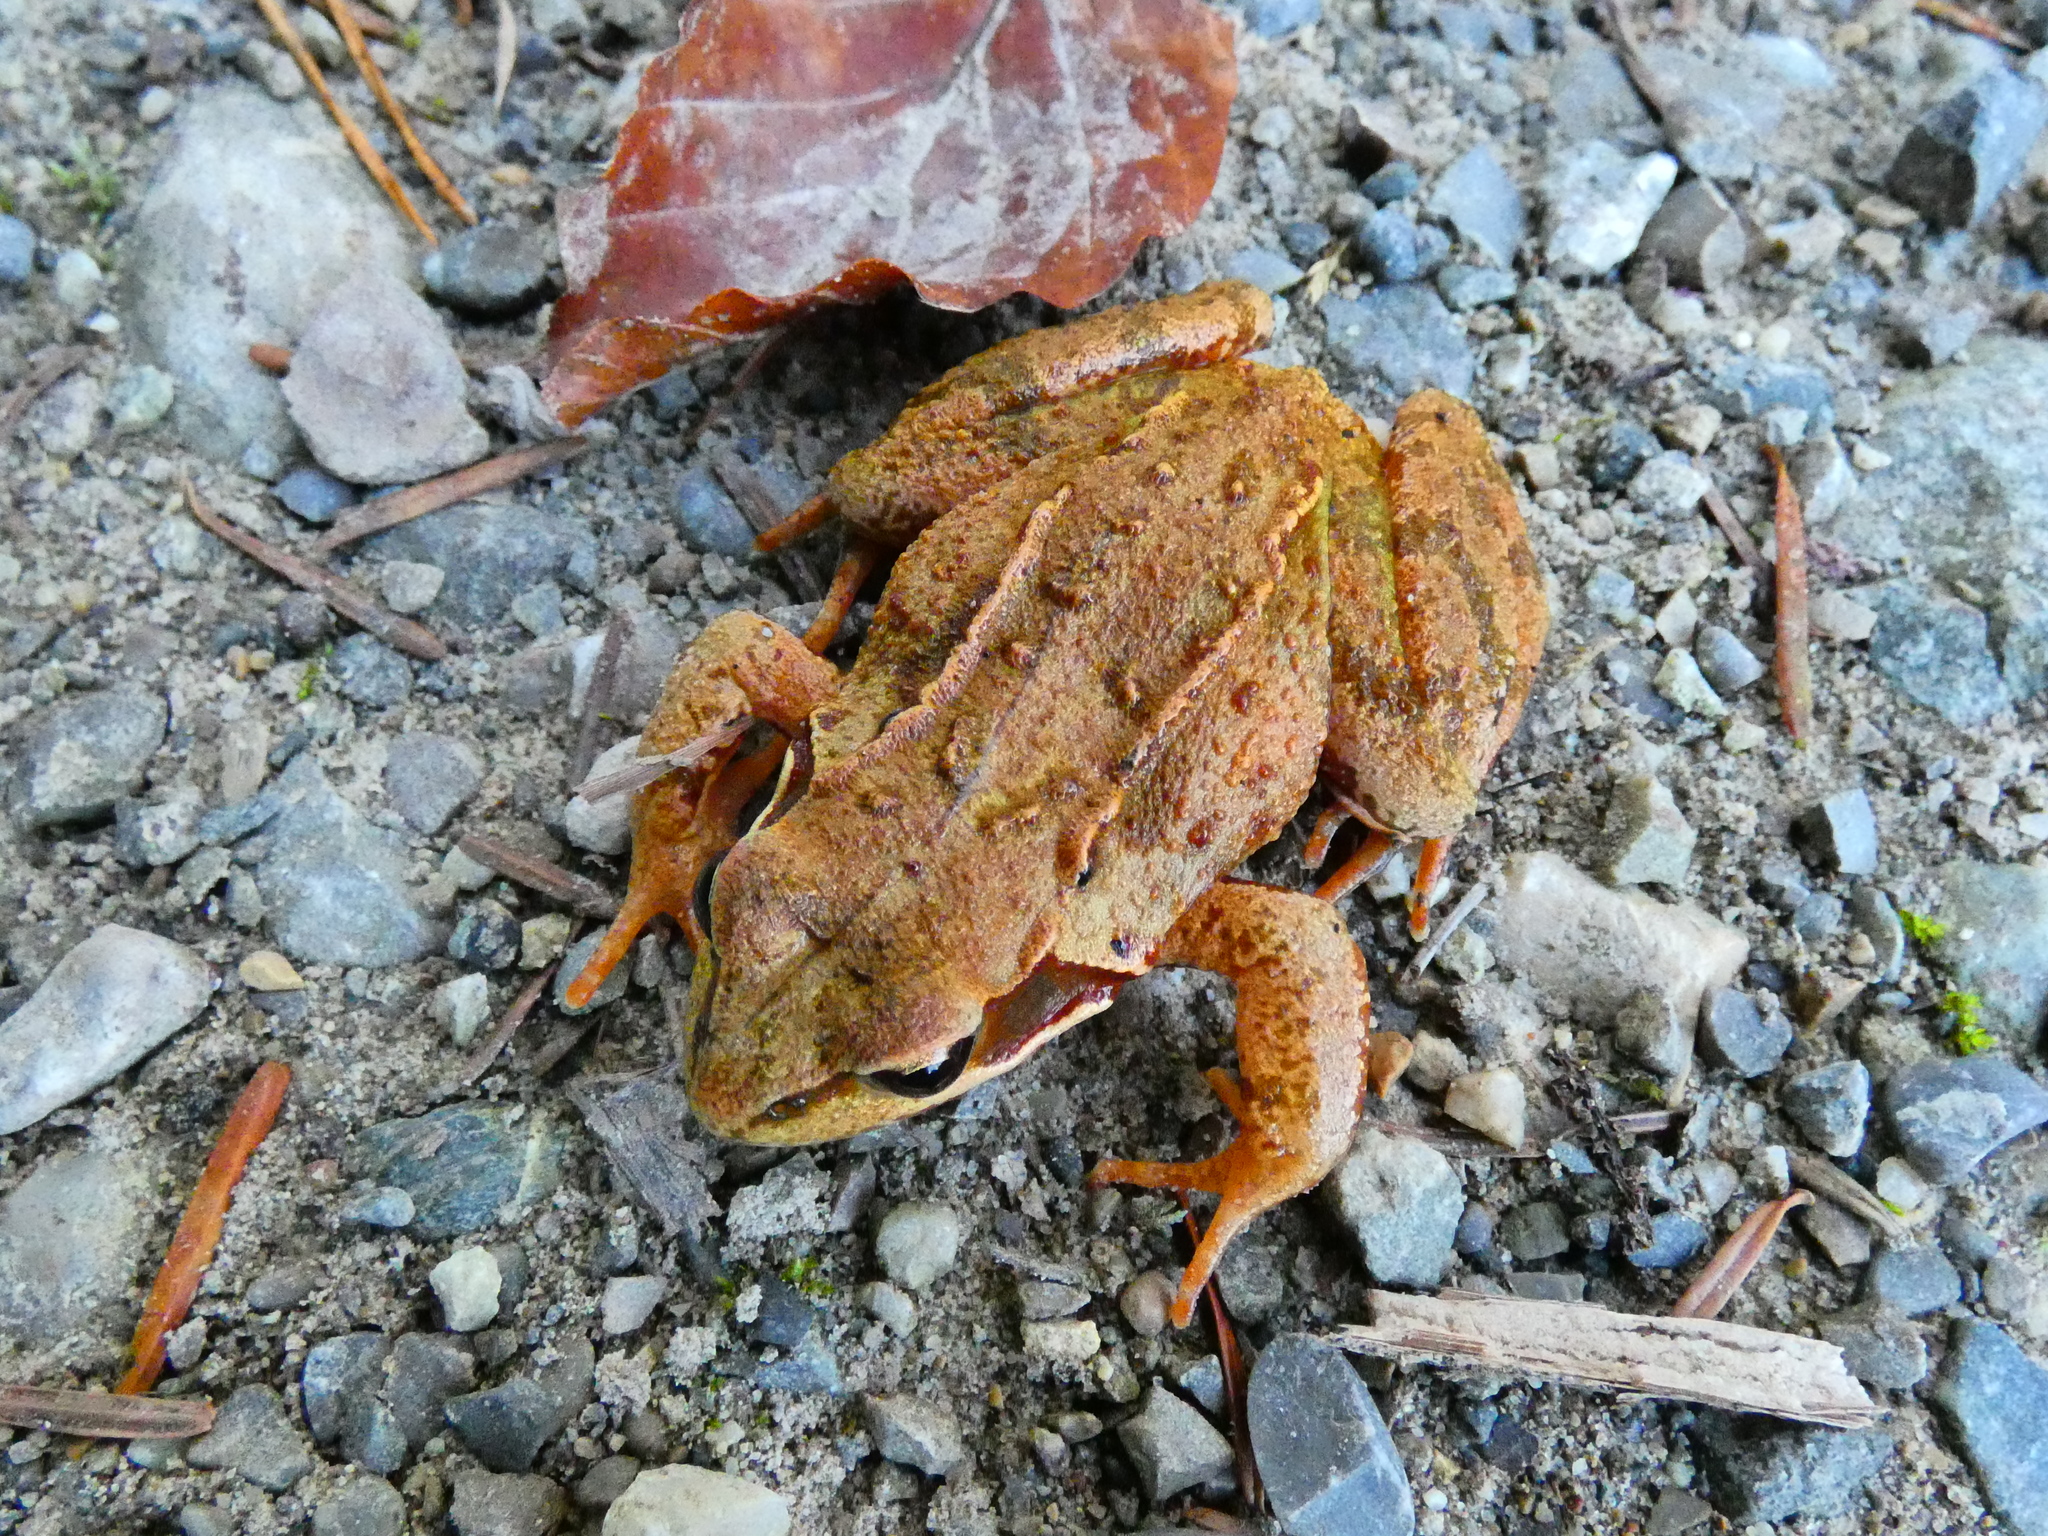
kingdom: Animalia
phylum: Chordata
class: Amphibia
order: Anura
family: Ranidae
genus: Rana
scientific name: Rana temporaria
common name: Common frog
